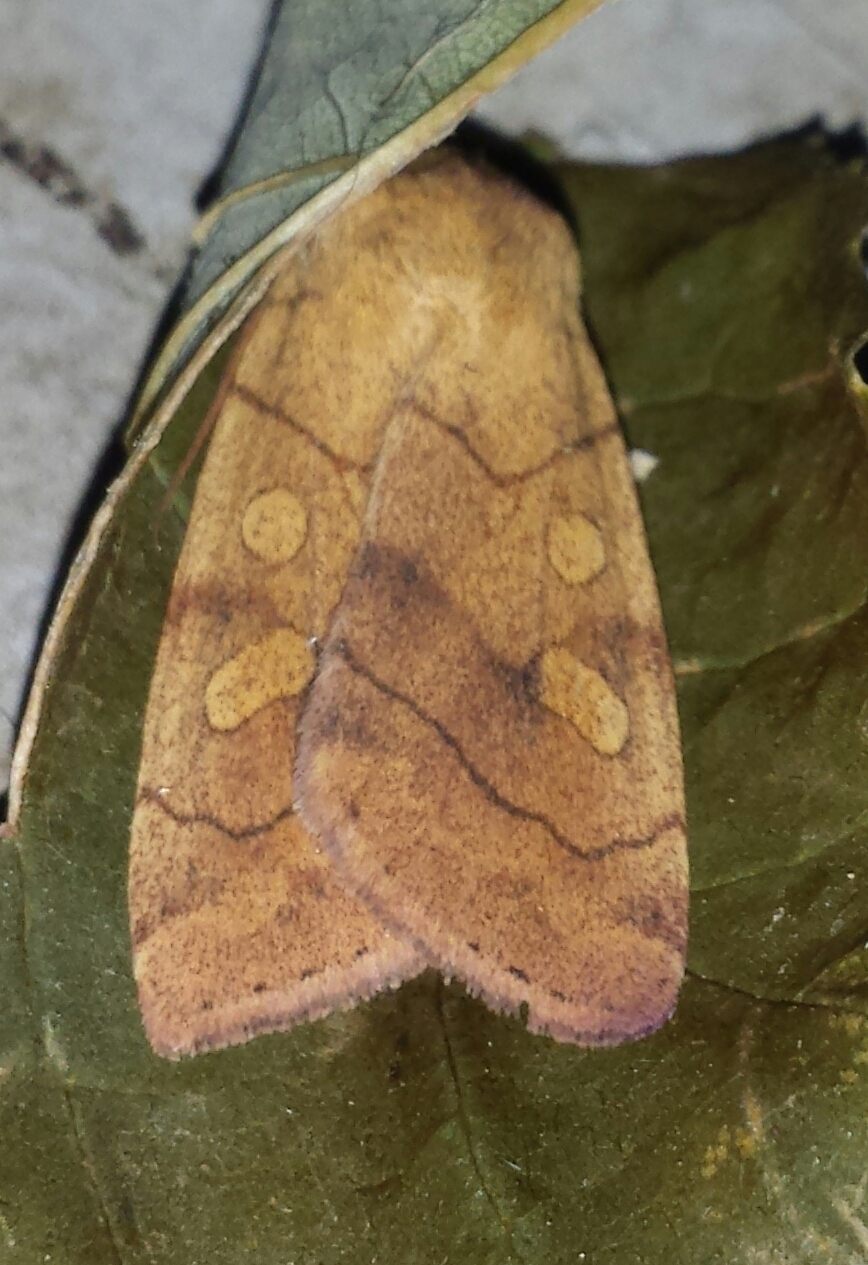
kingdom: Animalia
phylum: Arthropoda
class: Insecta
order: Lepidoptera
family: Noctuidae
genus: Enargia
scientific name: Enargia decolor
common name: Aspen twoleaf tier moth
